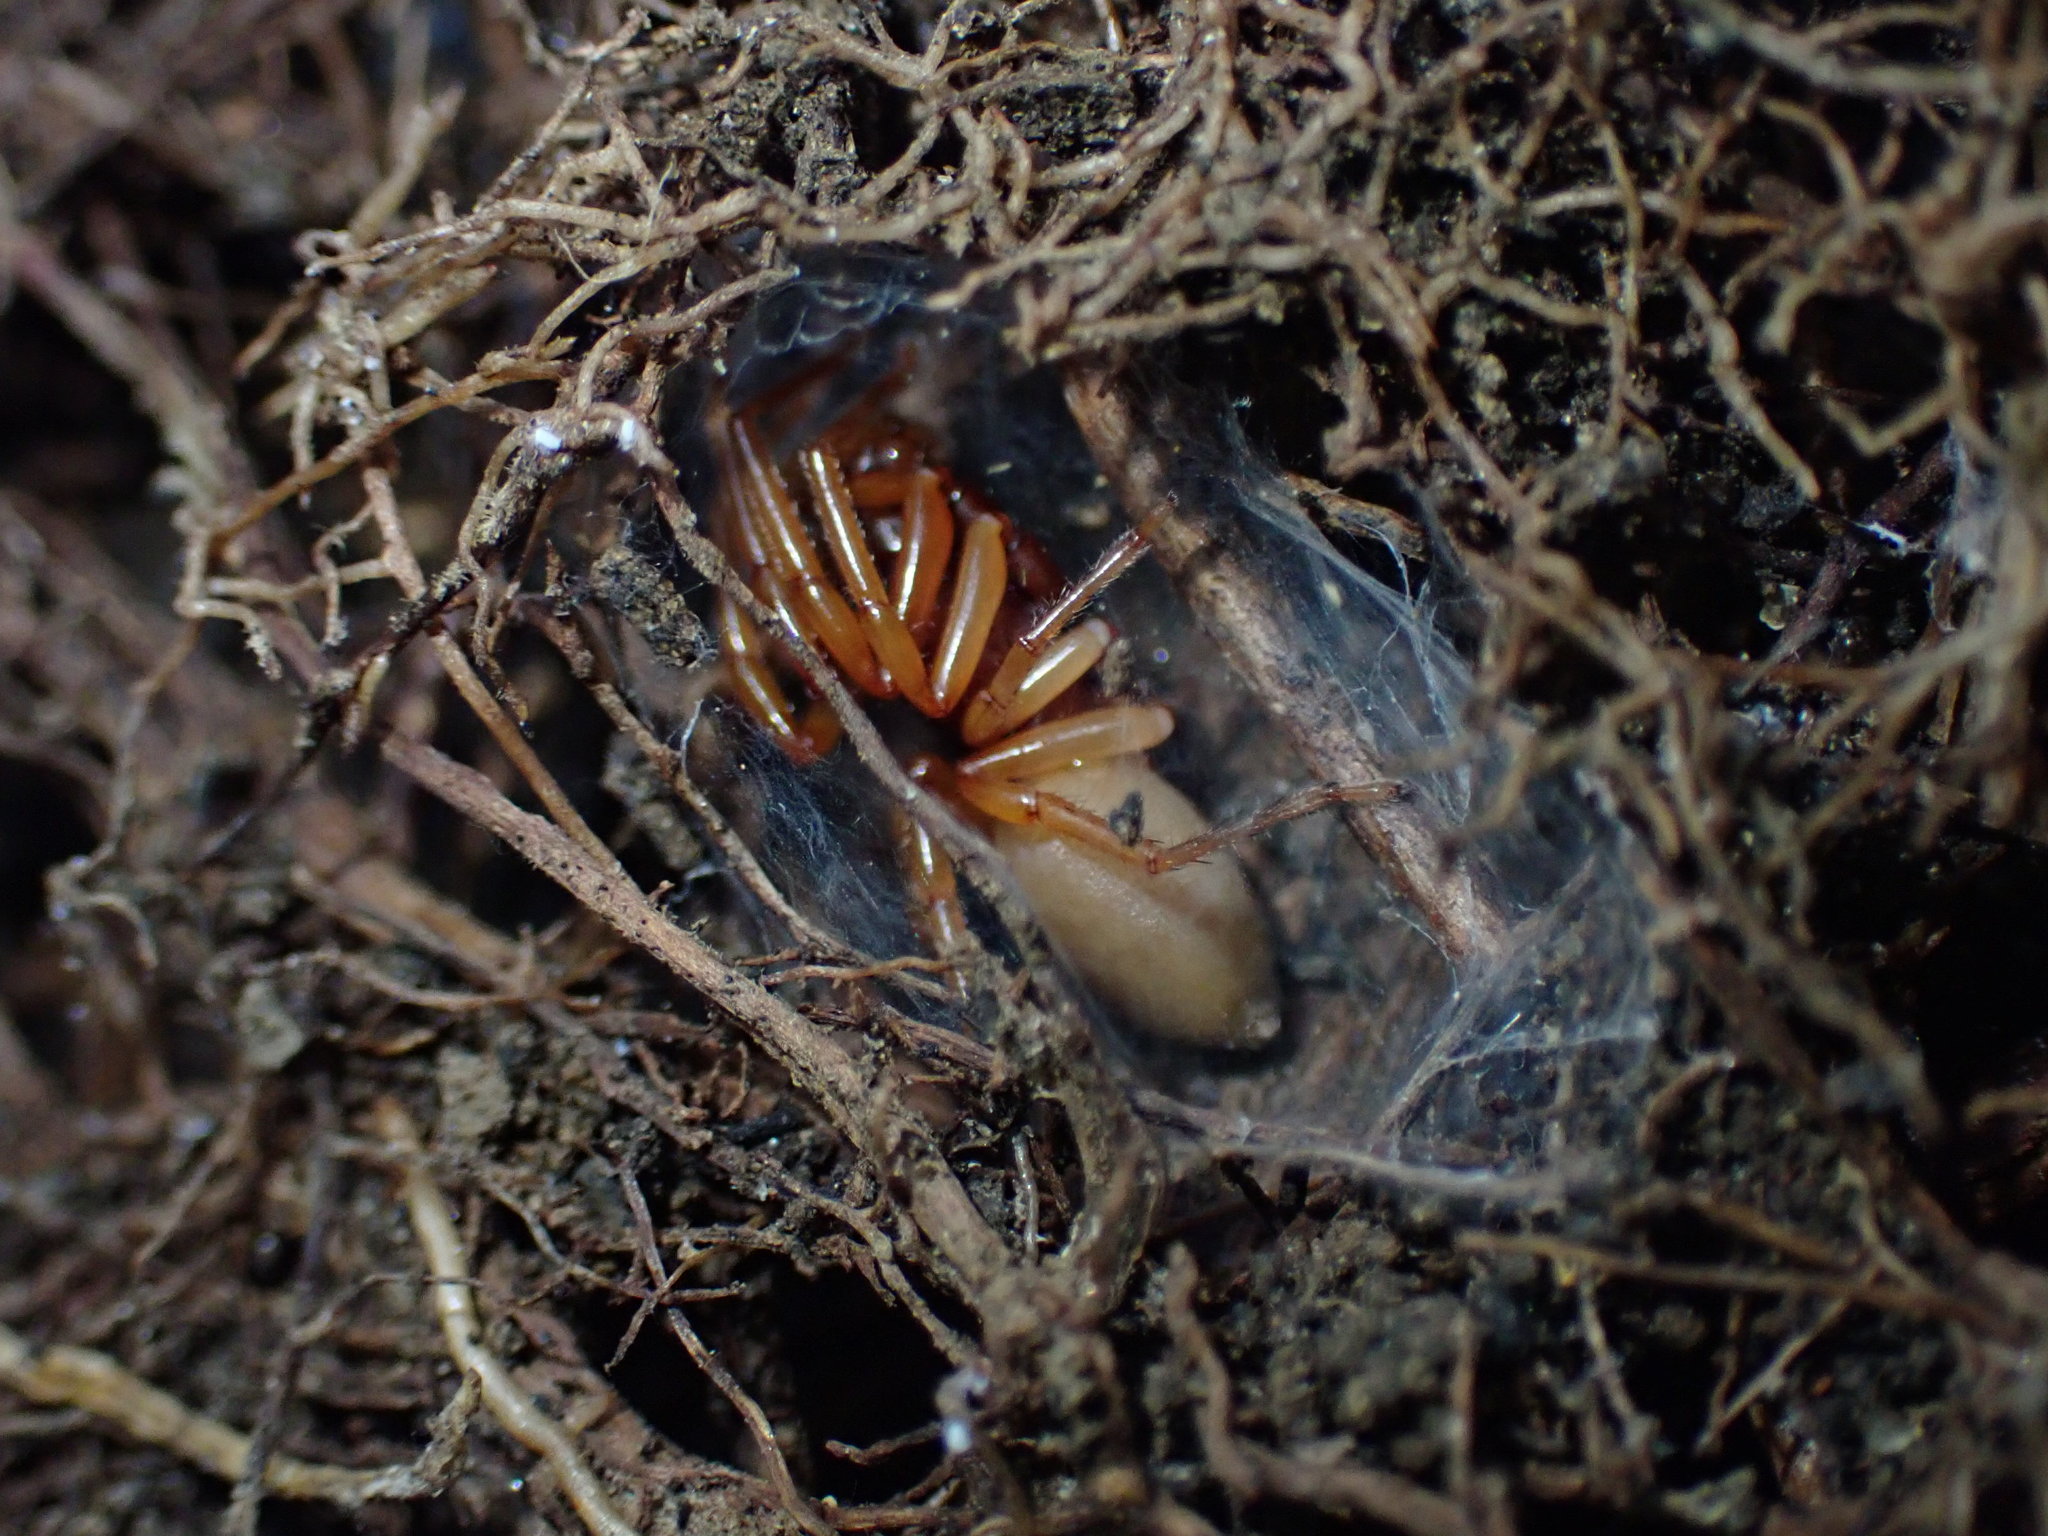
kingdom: Animalia
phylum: Arthropoda
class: Arachnida
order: Araneae
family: Dysderidae
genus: Dysdera
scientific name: Dysdera crocata
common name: Woodlouse spider
